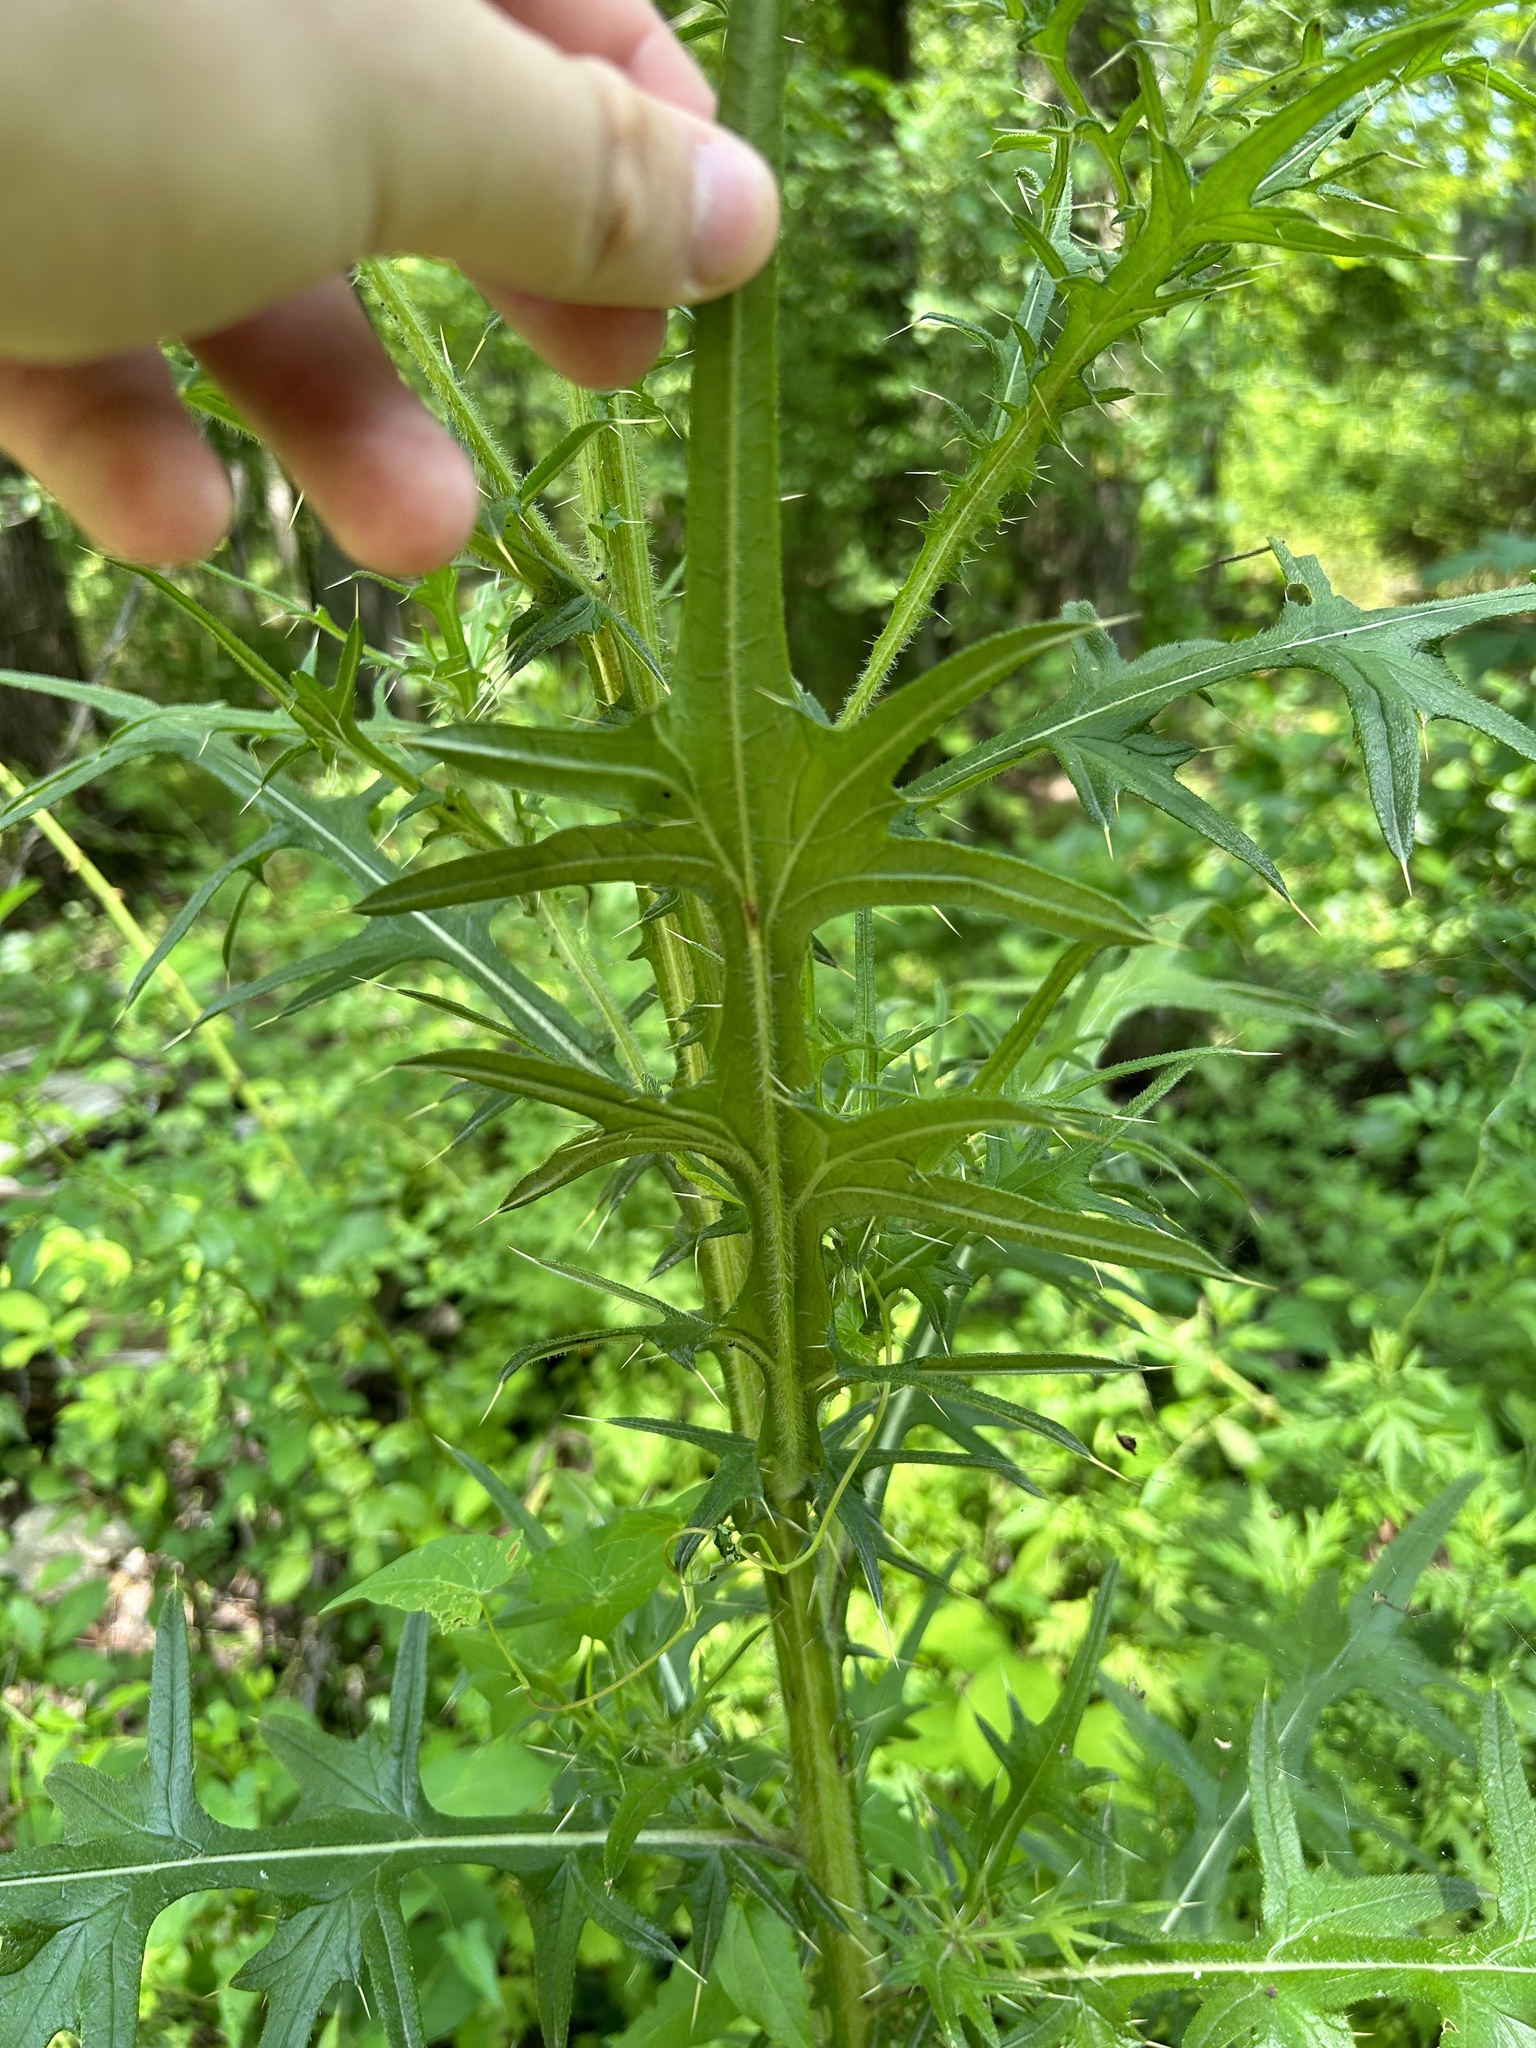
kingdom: Plantae
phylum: Tracheophyta
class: Magnoliopsida
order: Asterales
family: Asteraceae
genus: Cirsium
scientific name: Cirsium vulgare
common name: Bull thistle
